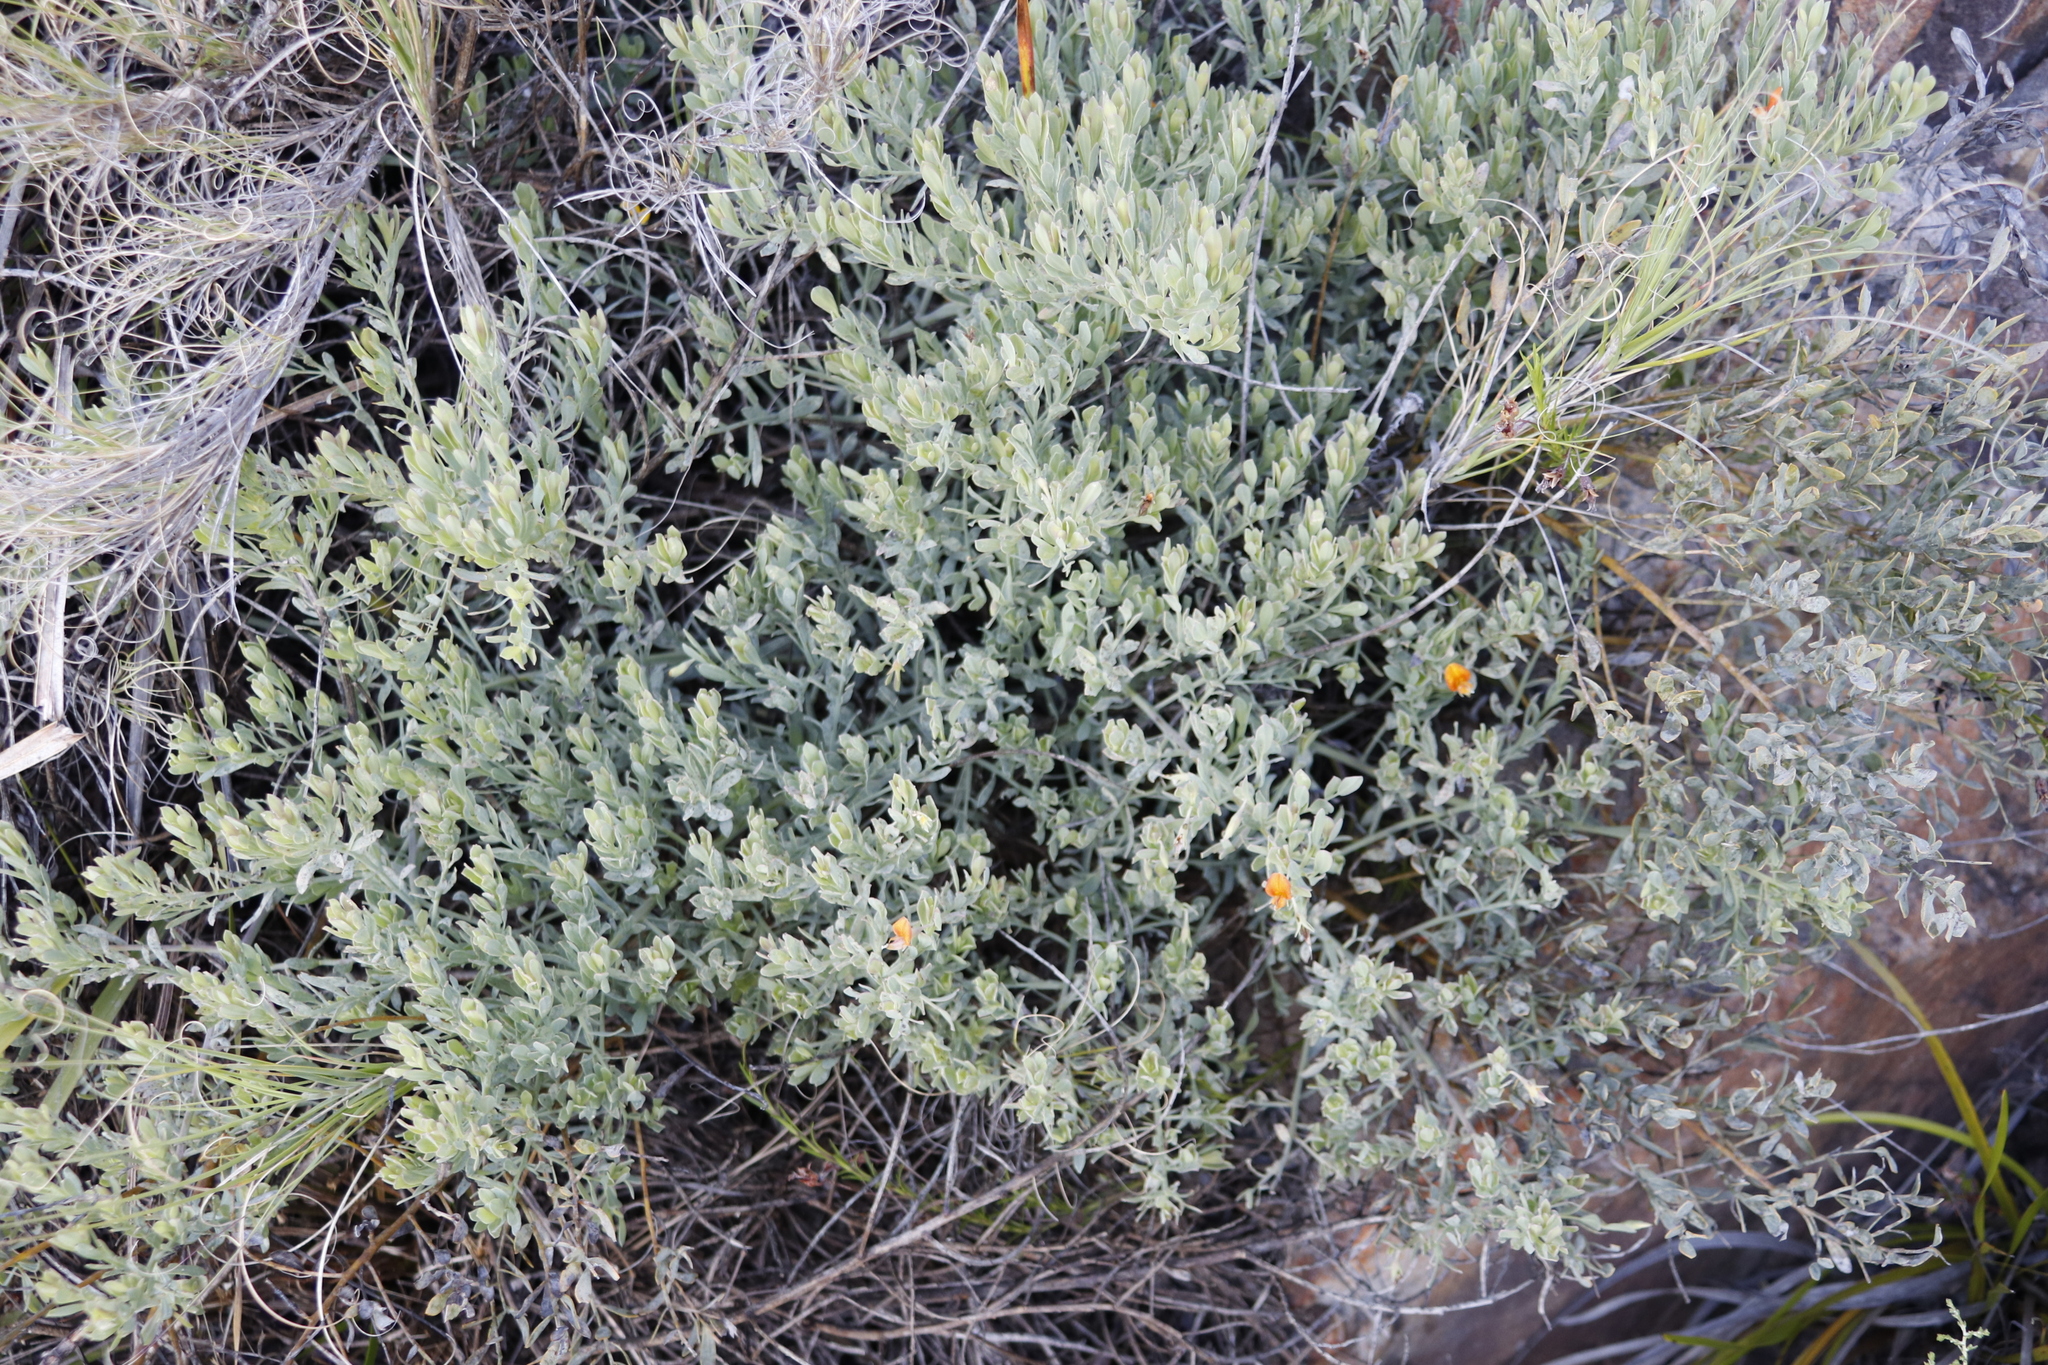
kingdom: Plantae
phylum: Tracheophyta
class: Magnoliopsida
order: Fabales
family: Fabaceae
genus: Rafnia
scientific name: Rafnia angulata
